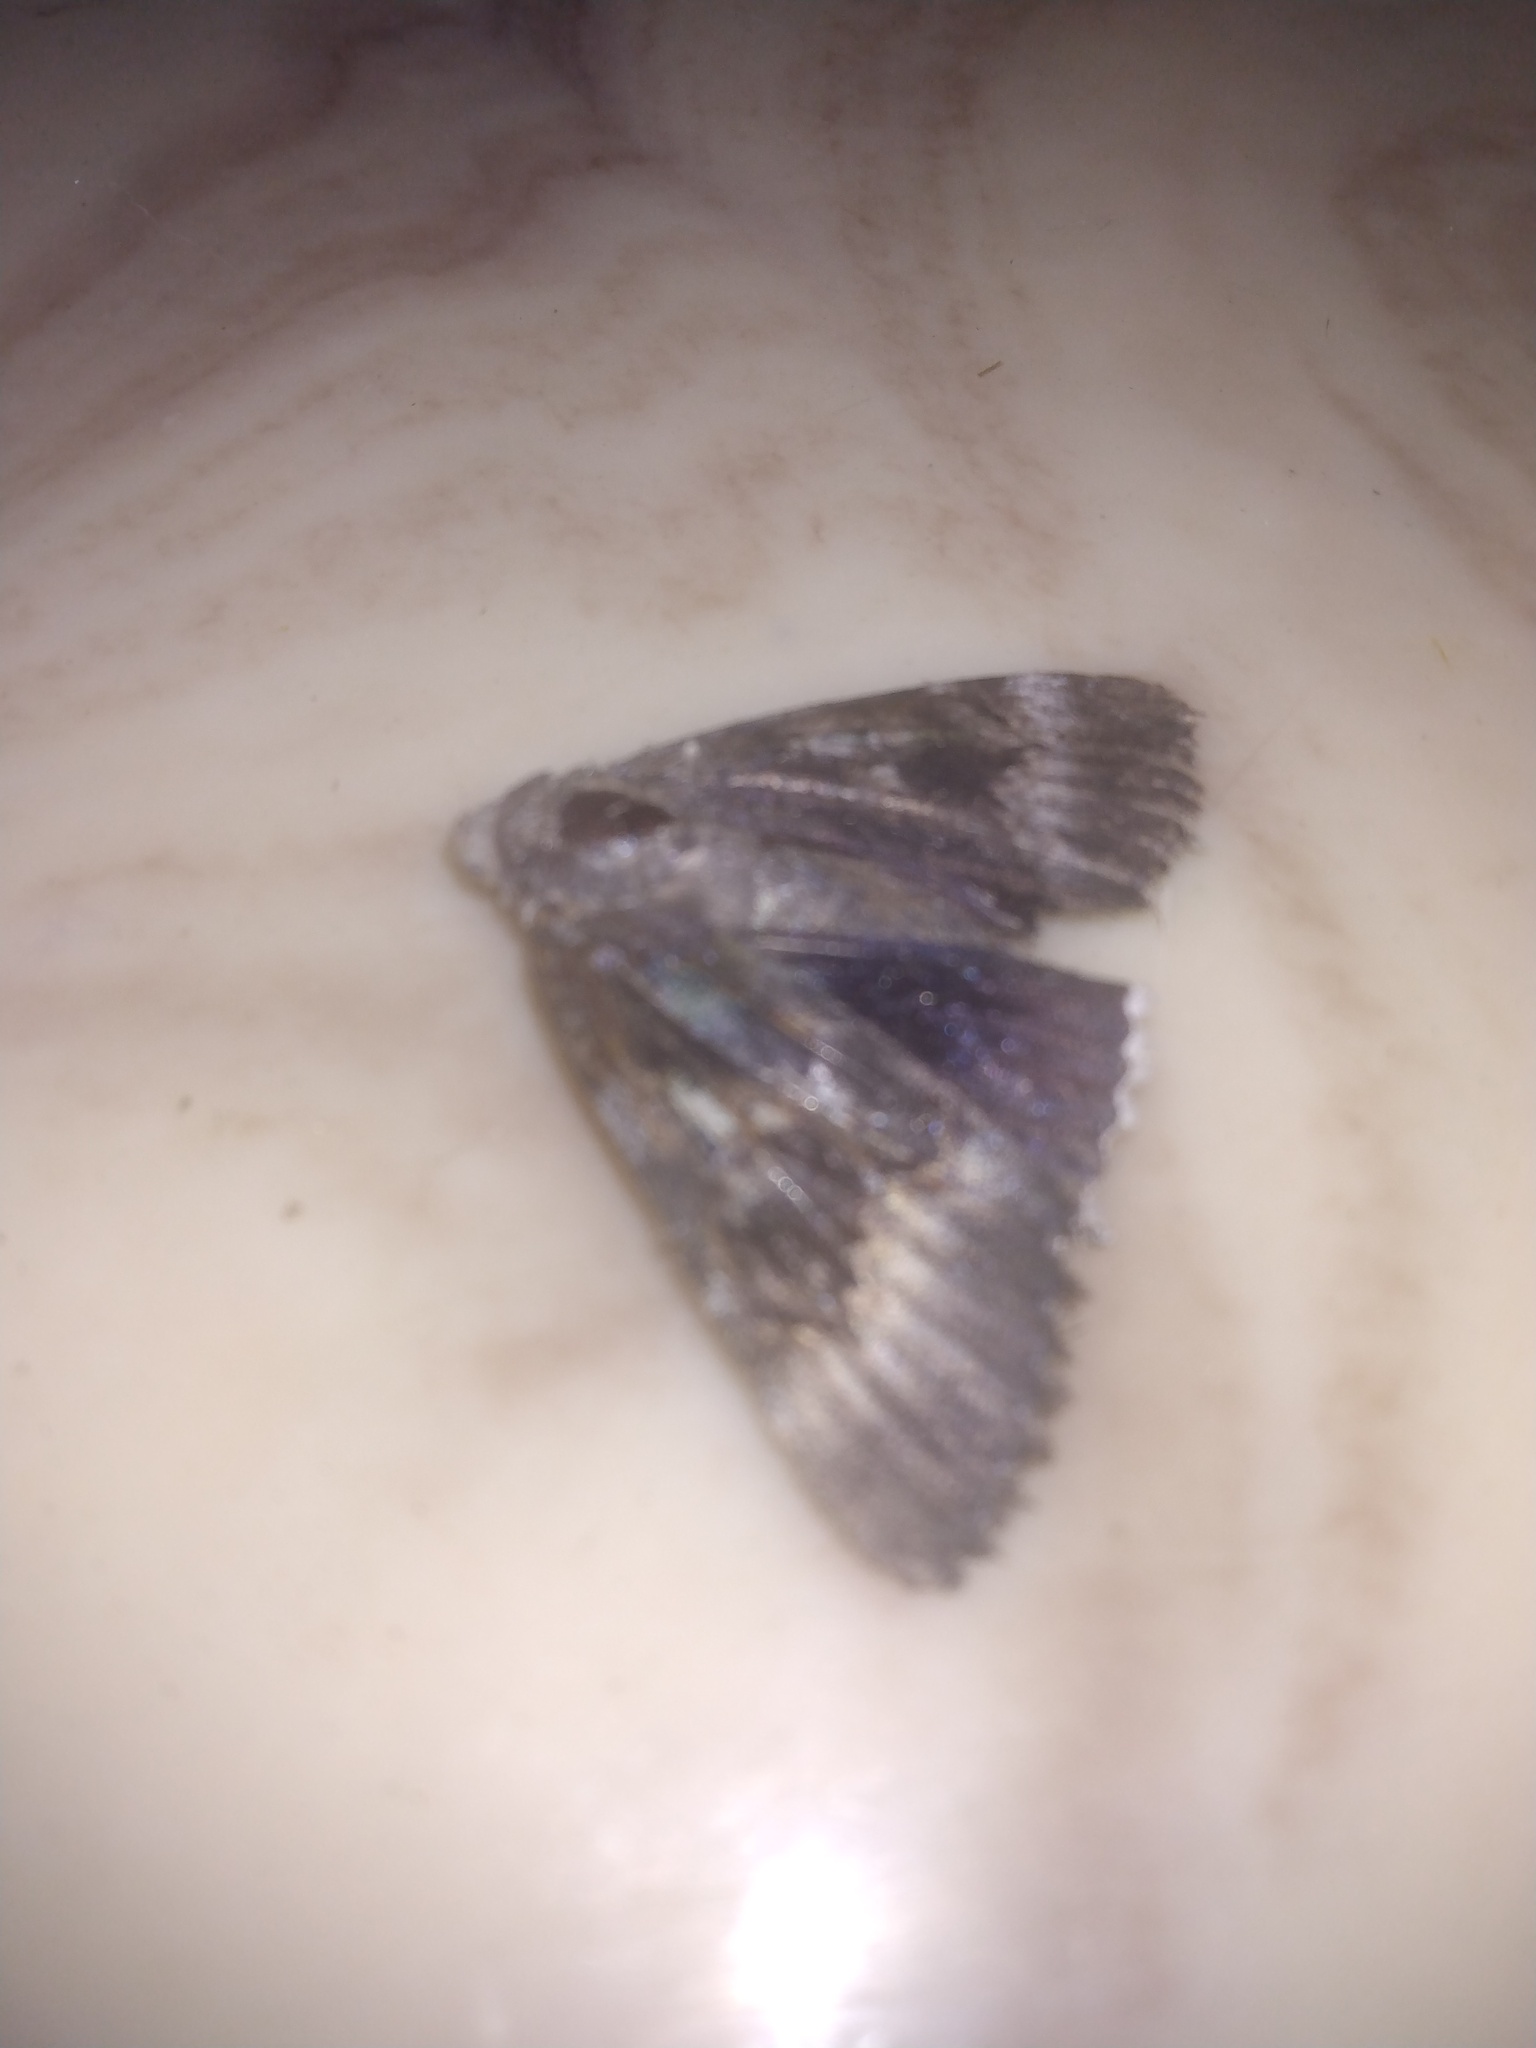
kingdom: Animalia
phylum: Arthropoda
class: Insecta
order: Lepidoptera
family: Erebidae
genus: Catocala
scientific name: Catocala epione
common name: Epione underwing
